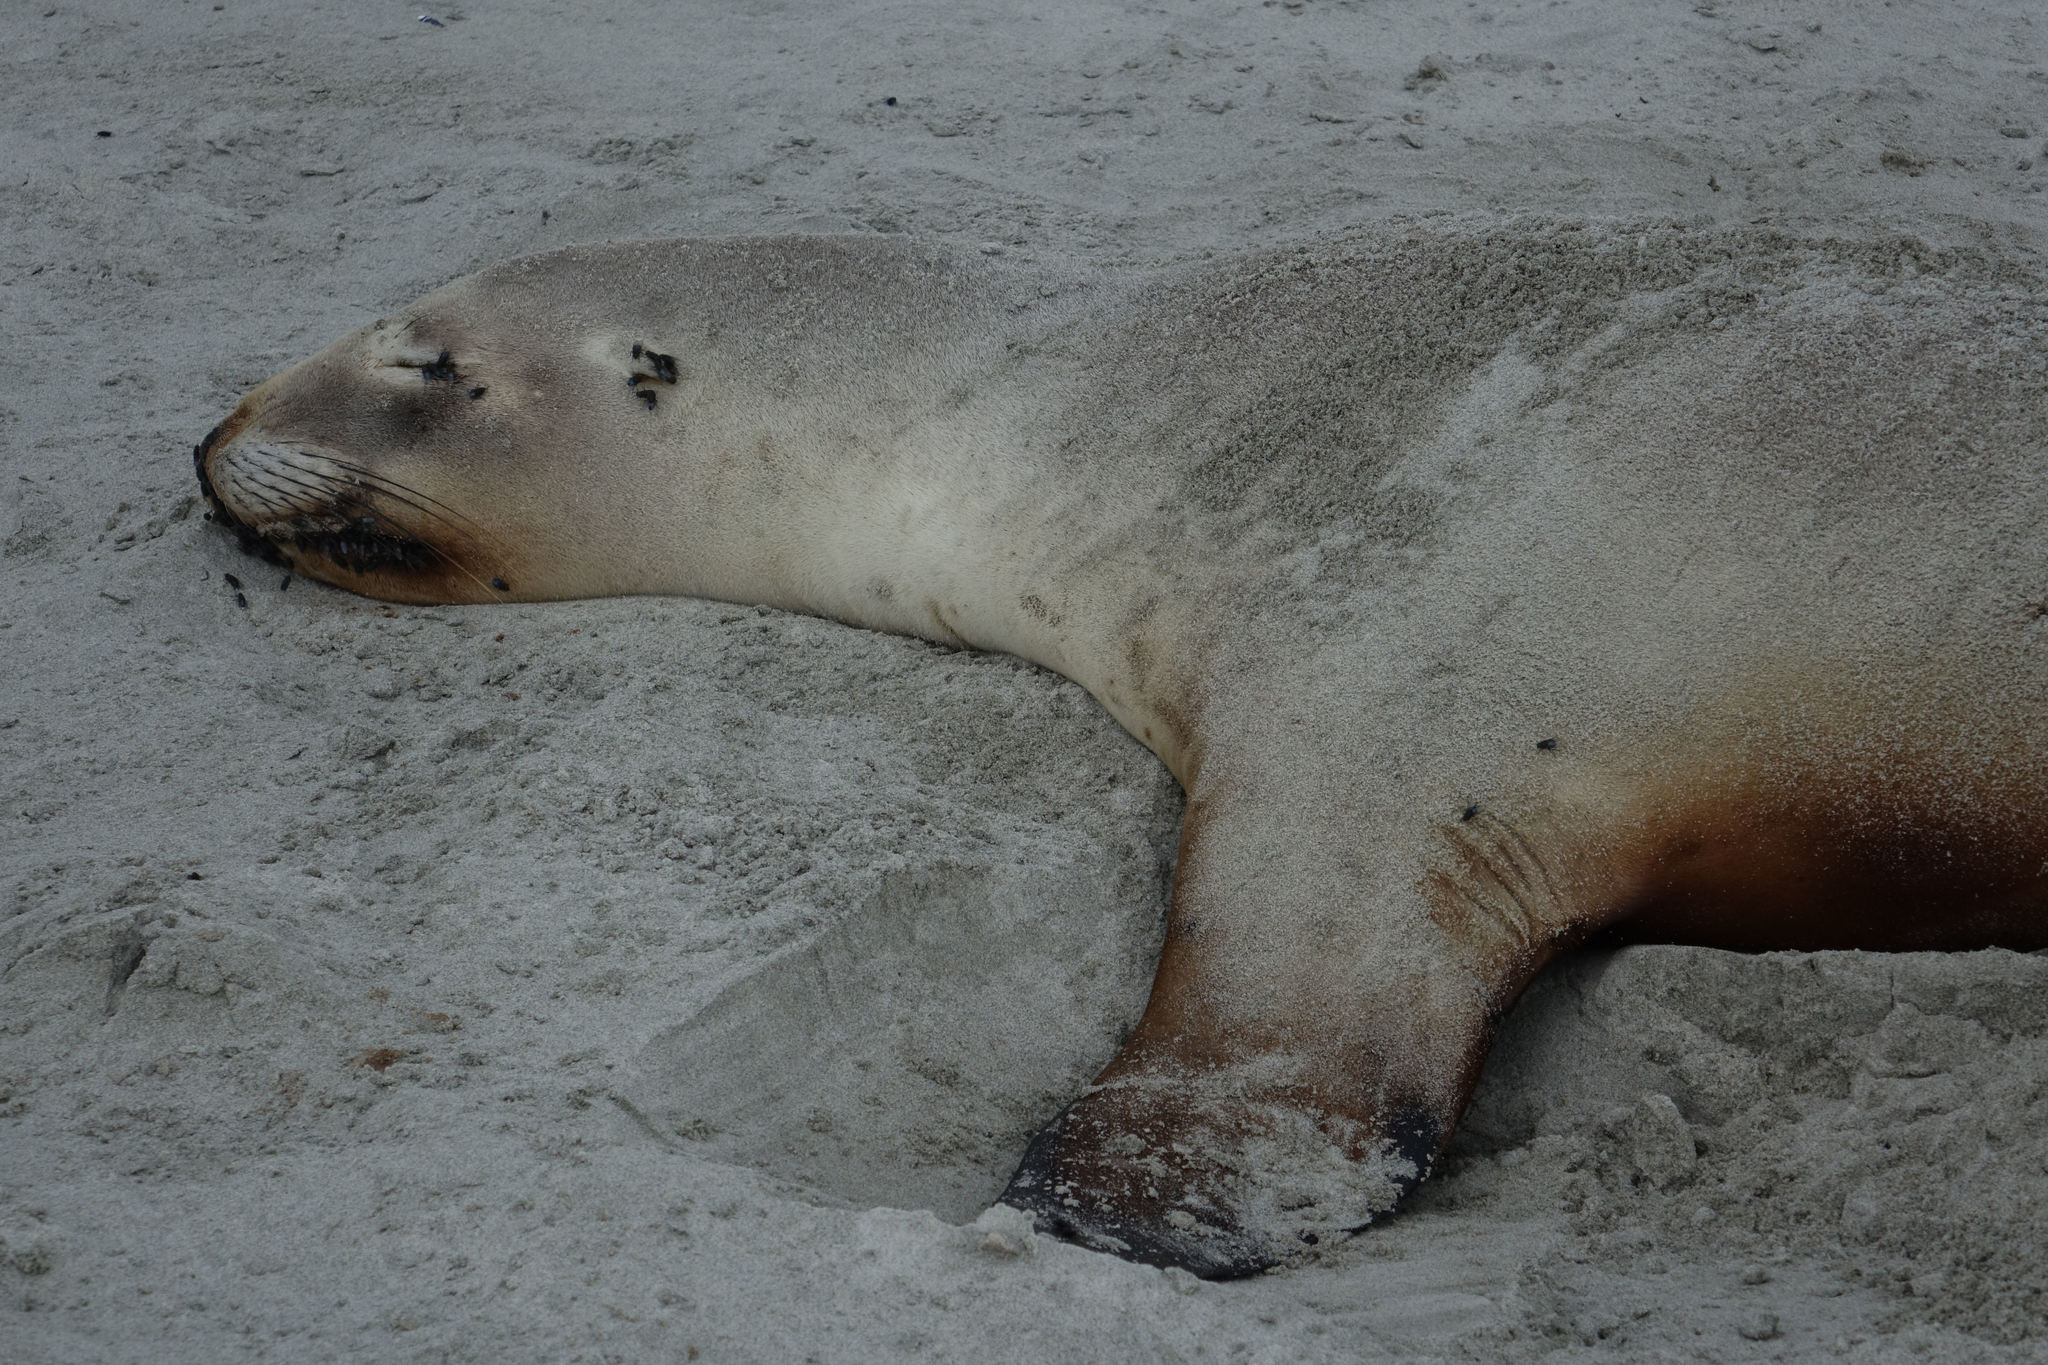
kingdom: Animalia
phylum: Chordata
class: Mammalia
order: Carnivora
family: Otariidae
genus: Phocarctos
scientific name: Phocarctos hookeri
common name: New zealand sea lion
